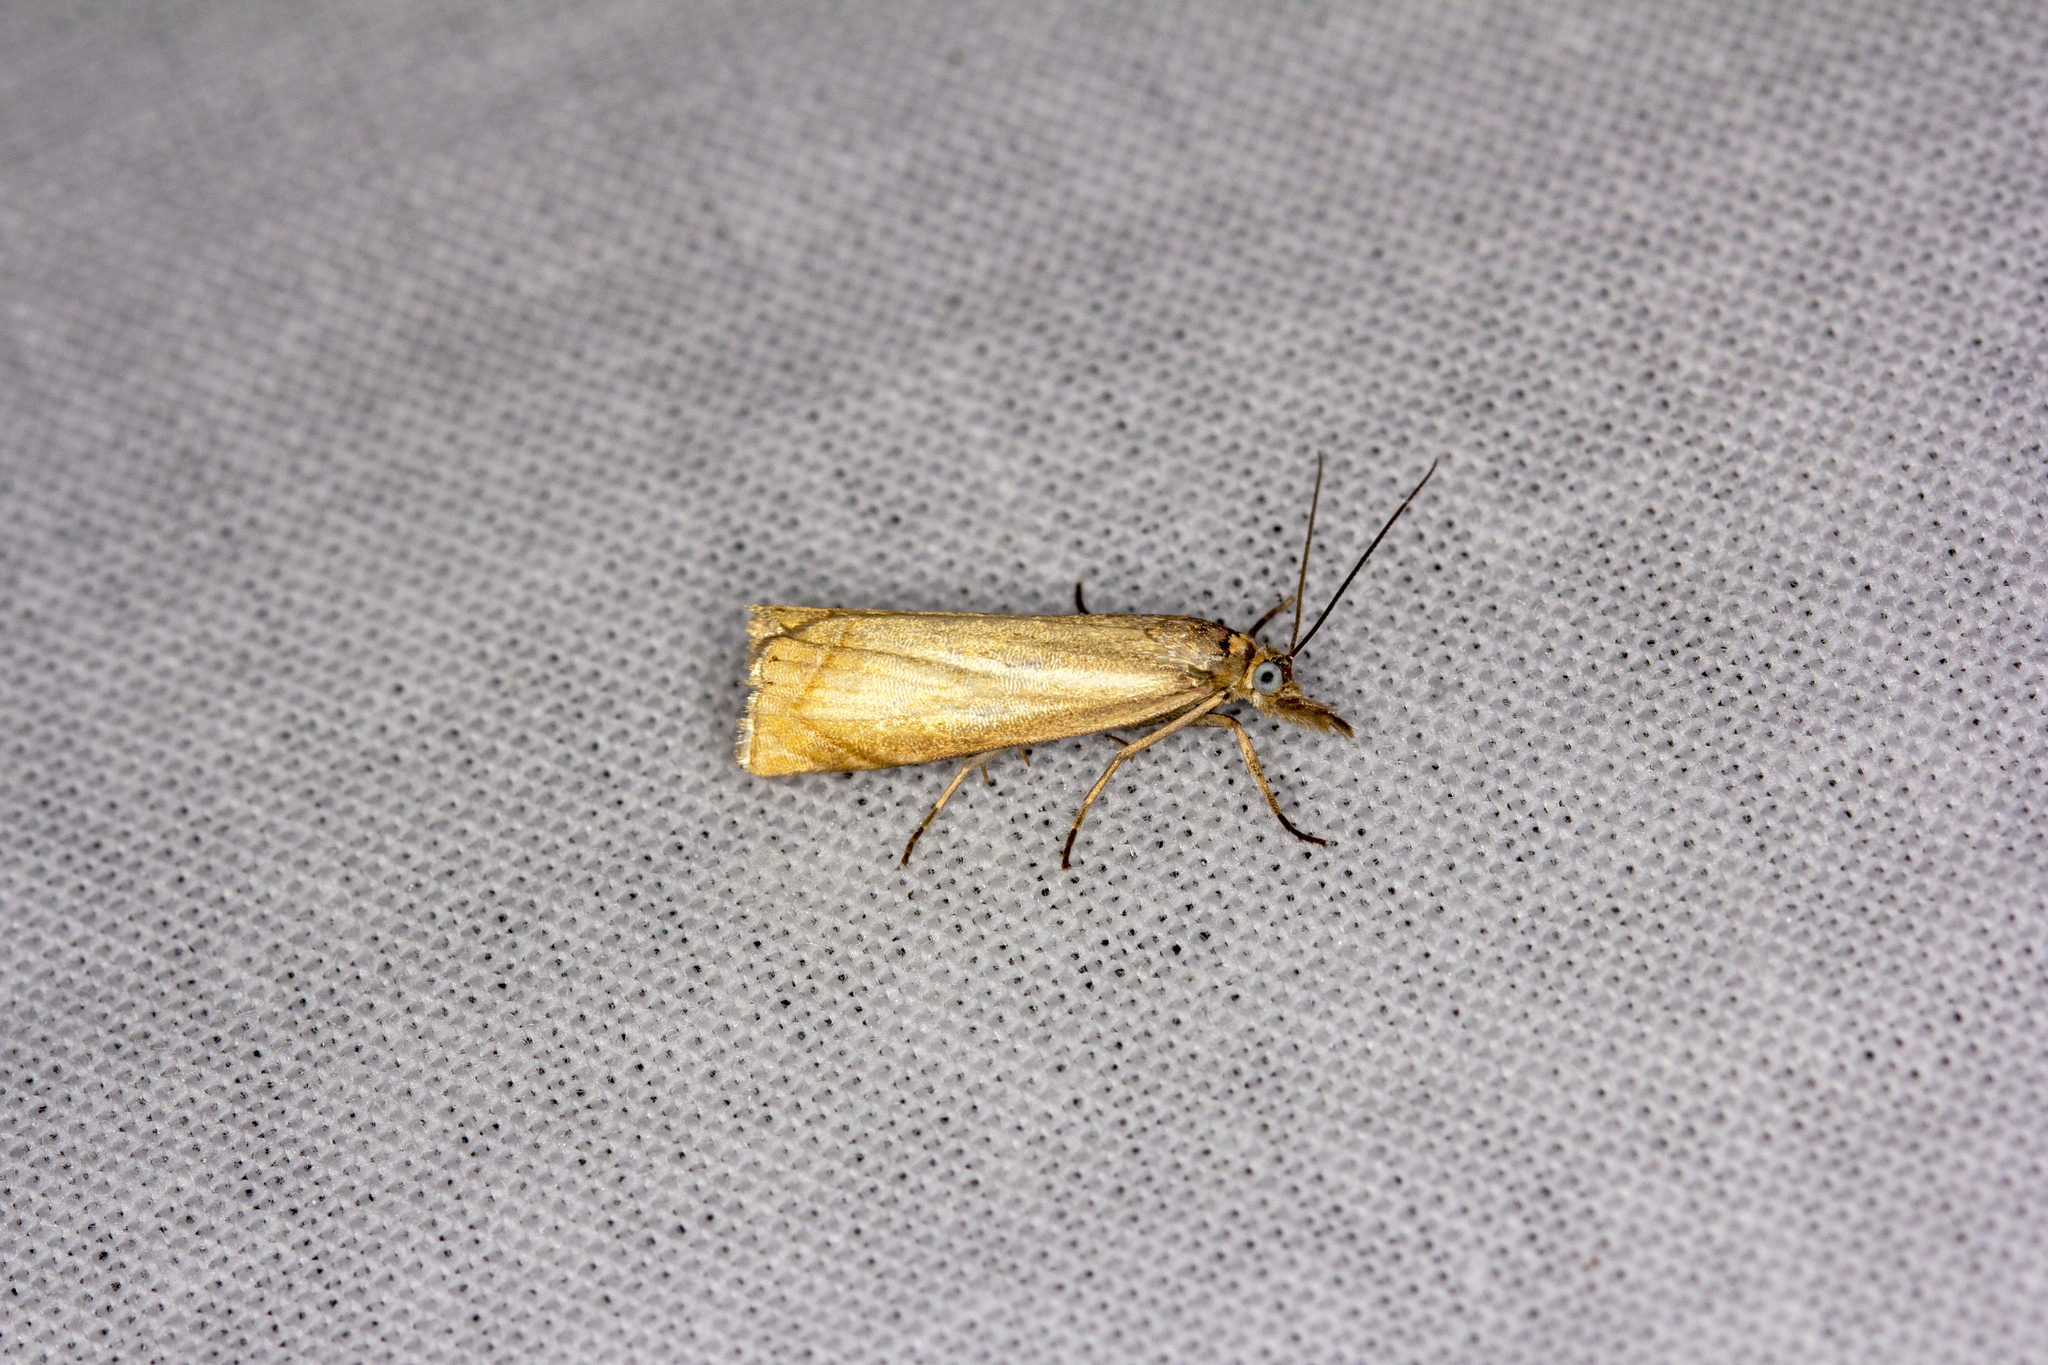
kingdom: Animalia
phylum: Arthropoda
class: Insecta
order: Lepidoptera
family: Crambidae
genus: Chrysoteuchia
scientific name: Chrysoteuchia culmella
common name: Garden grass-veneer
